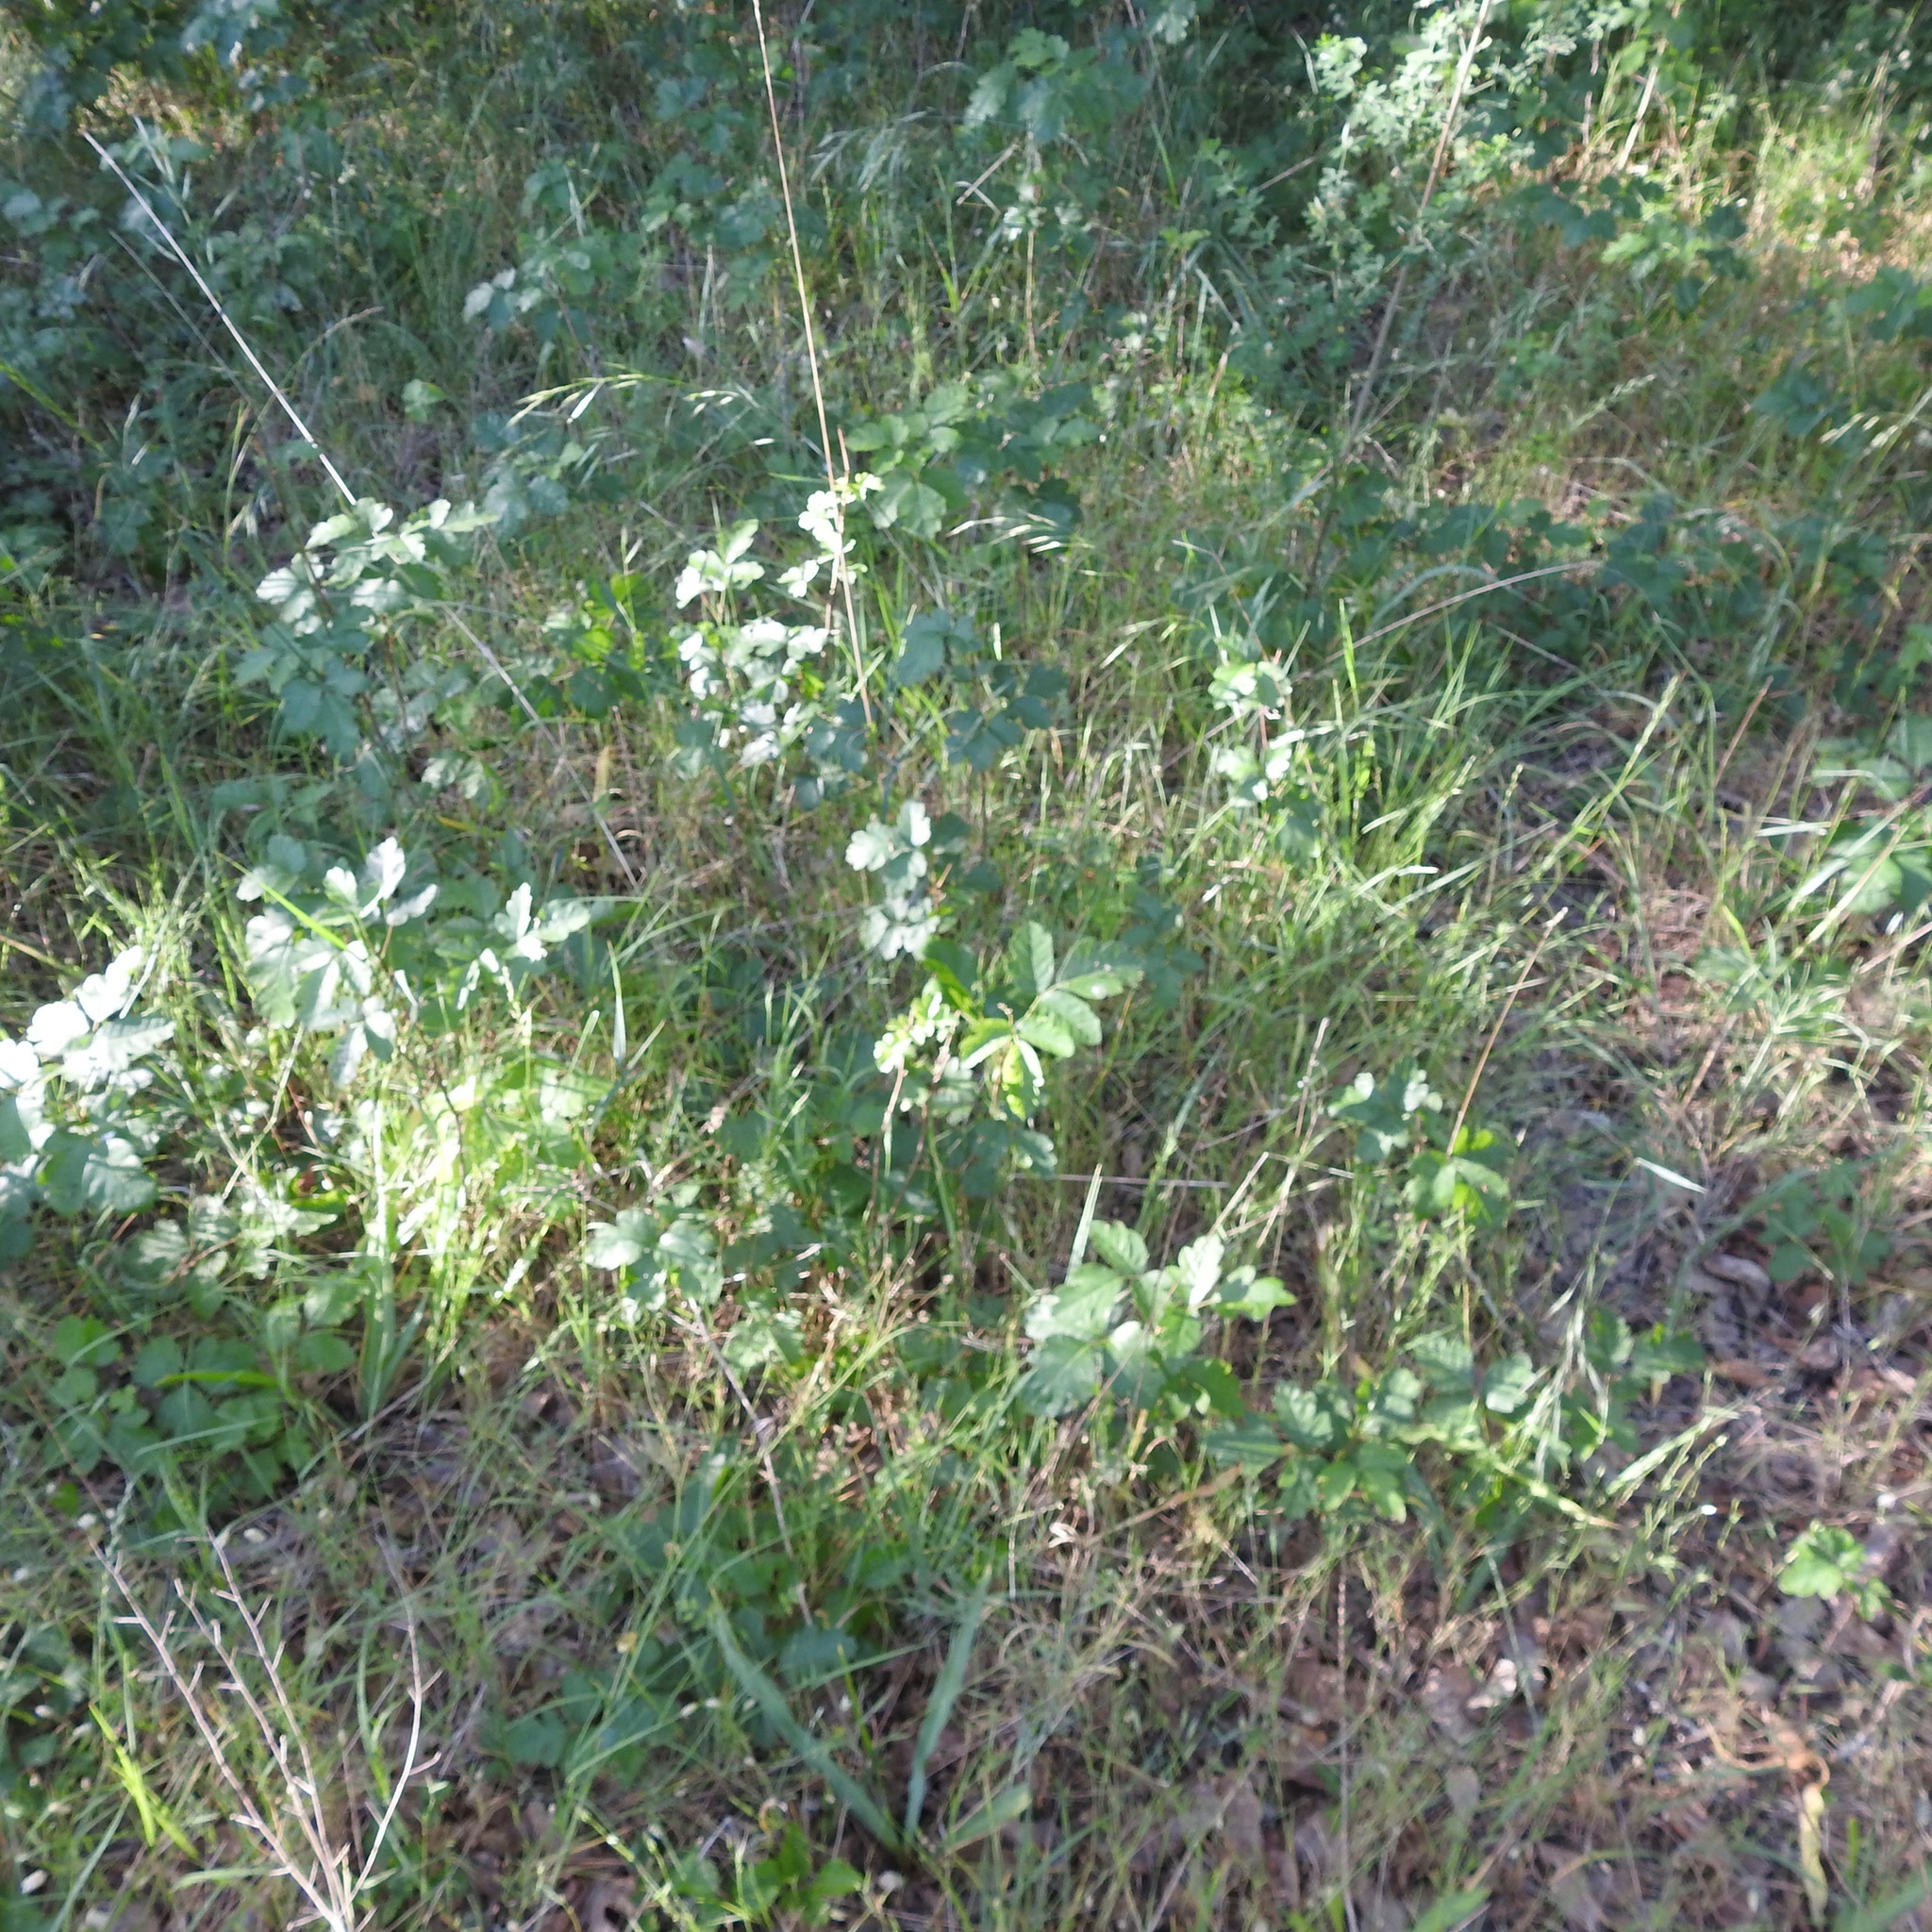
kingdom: Plantae
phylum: Tracheophyta
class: Magnoliopsida
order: Sapindales
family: Anacardiaceae
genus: Toxicodendron
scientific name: Toxicodendron diversilobum
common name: Pacific poison-oak
